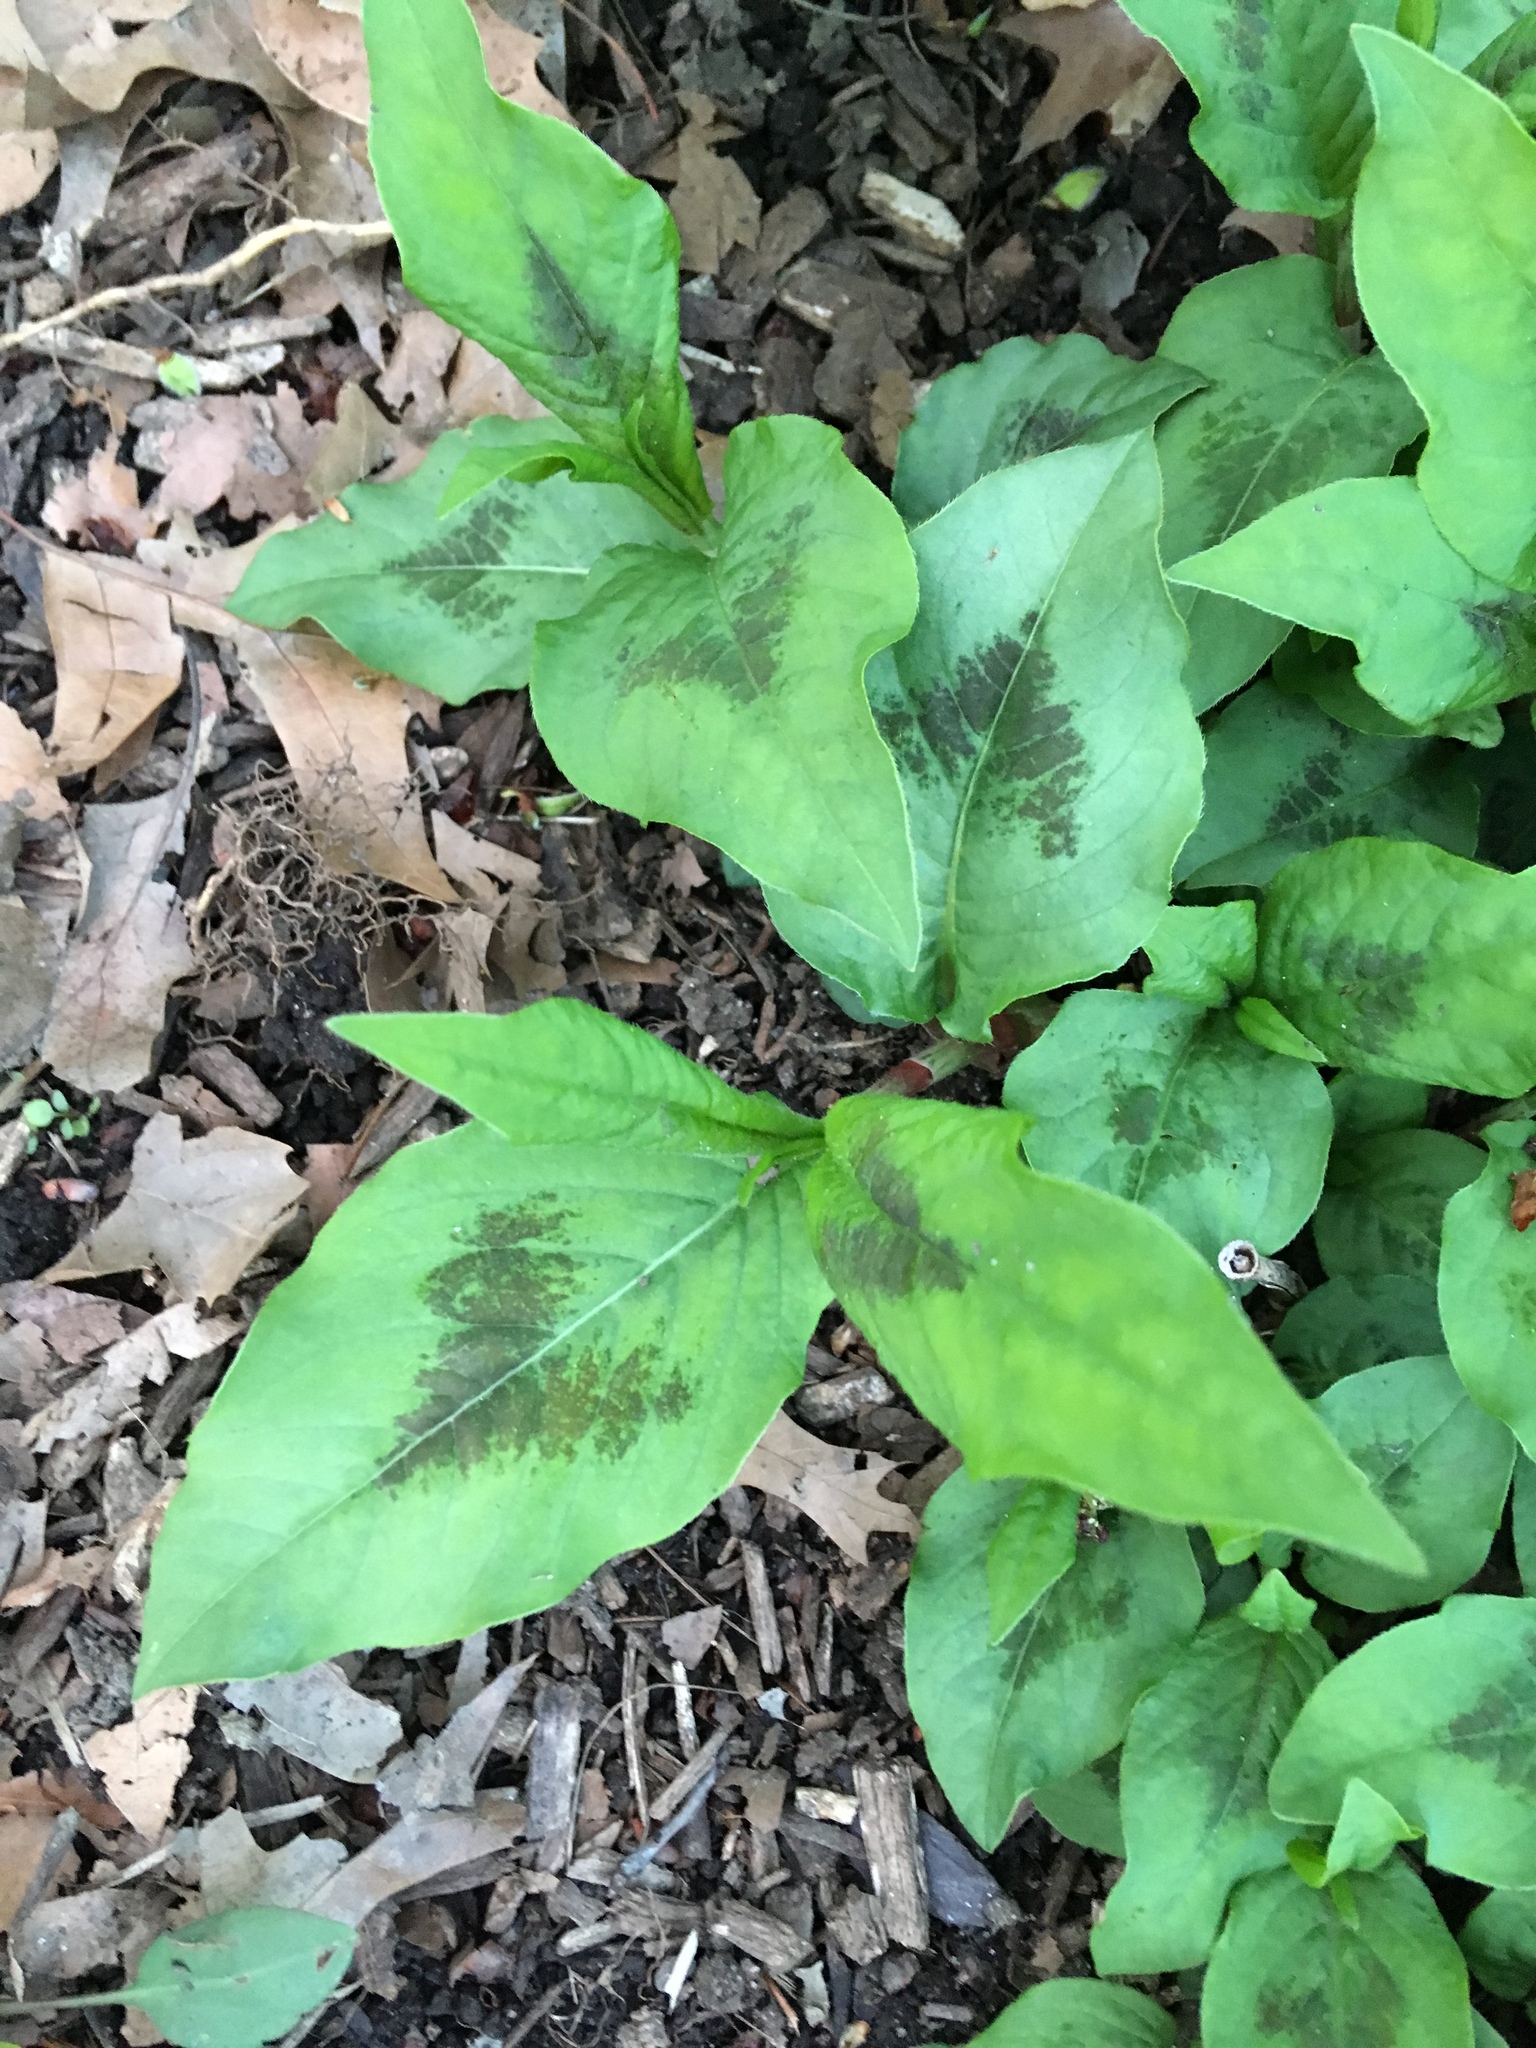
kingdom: Plantae
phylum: Tracheophyta
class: Magnoliopsida
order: Caryophyllales
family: Polygonaceae
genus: Persicaria
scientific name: Persicaria virginiana
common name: Jumpseed
